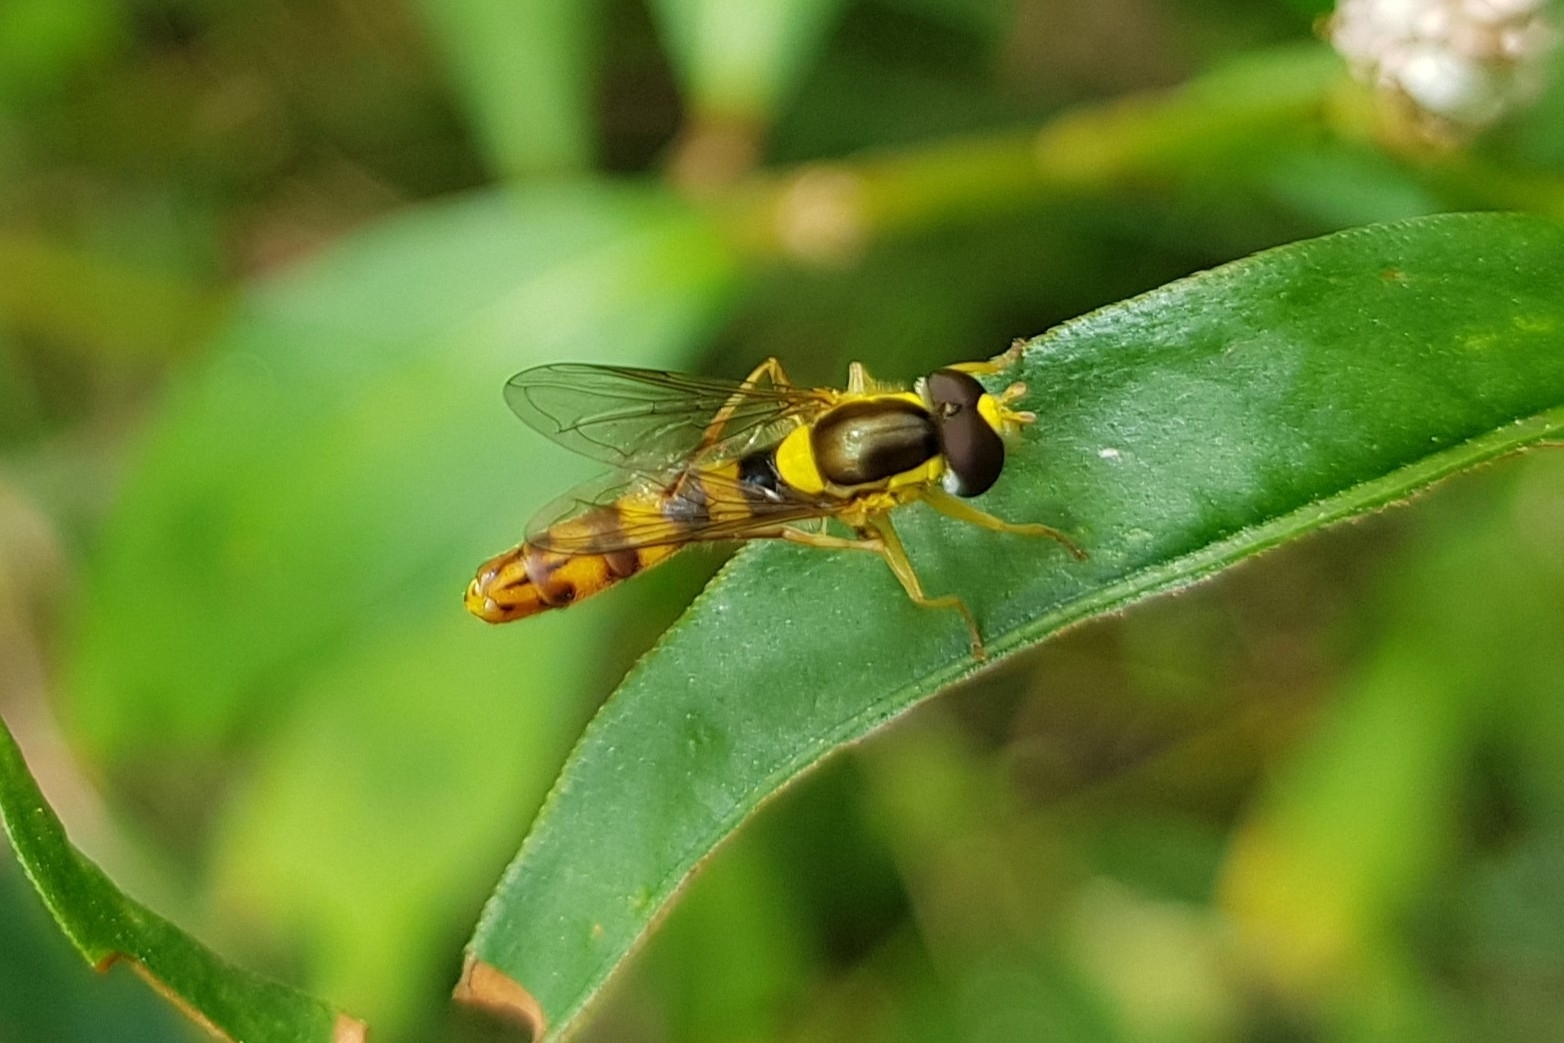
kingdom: Animalia
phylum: Arthropoda
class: Insecta
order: Diptera
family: Syrphidae
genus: Sphaerophoria
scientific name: Sphaerophoria scripta
